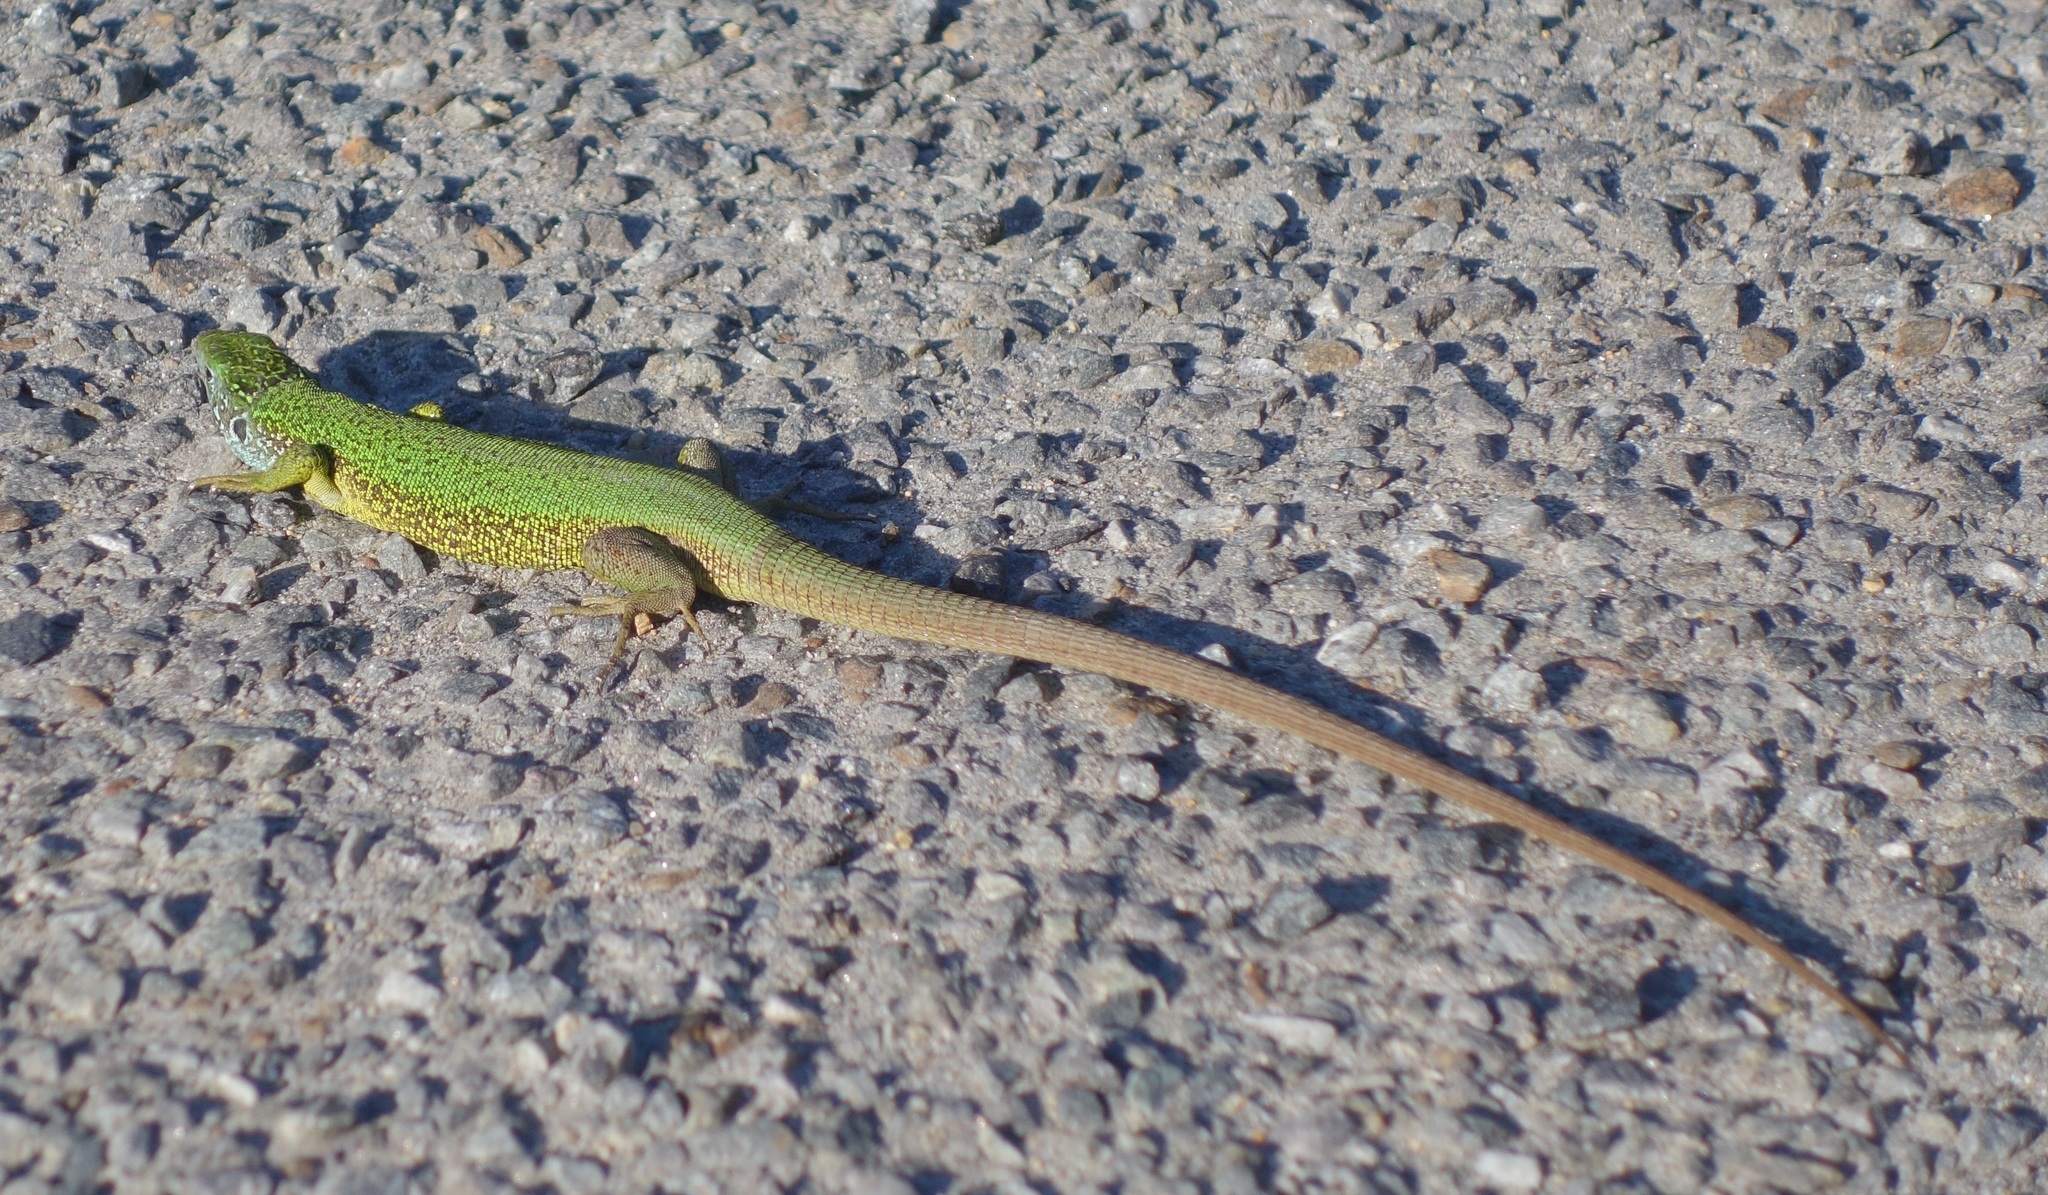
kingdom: Animalia
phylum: Chordata
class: Squamata
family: Lacertidae
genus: Lacerta
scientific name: Lacerta viridis
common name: European green lizard
